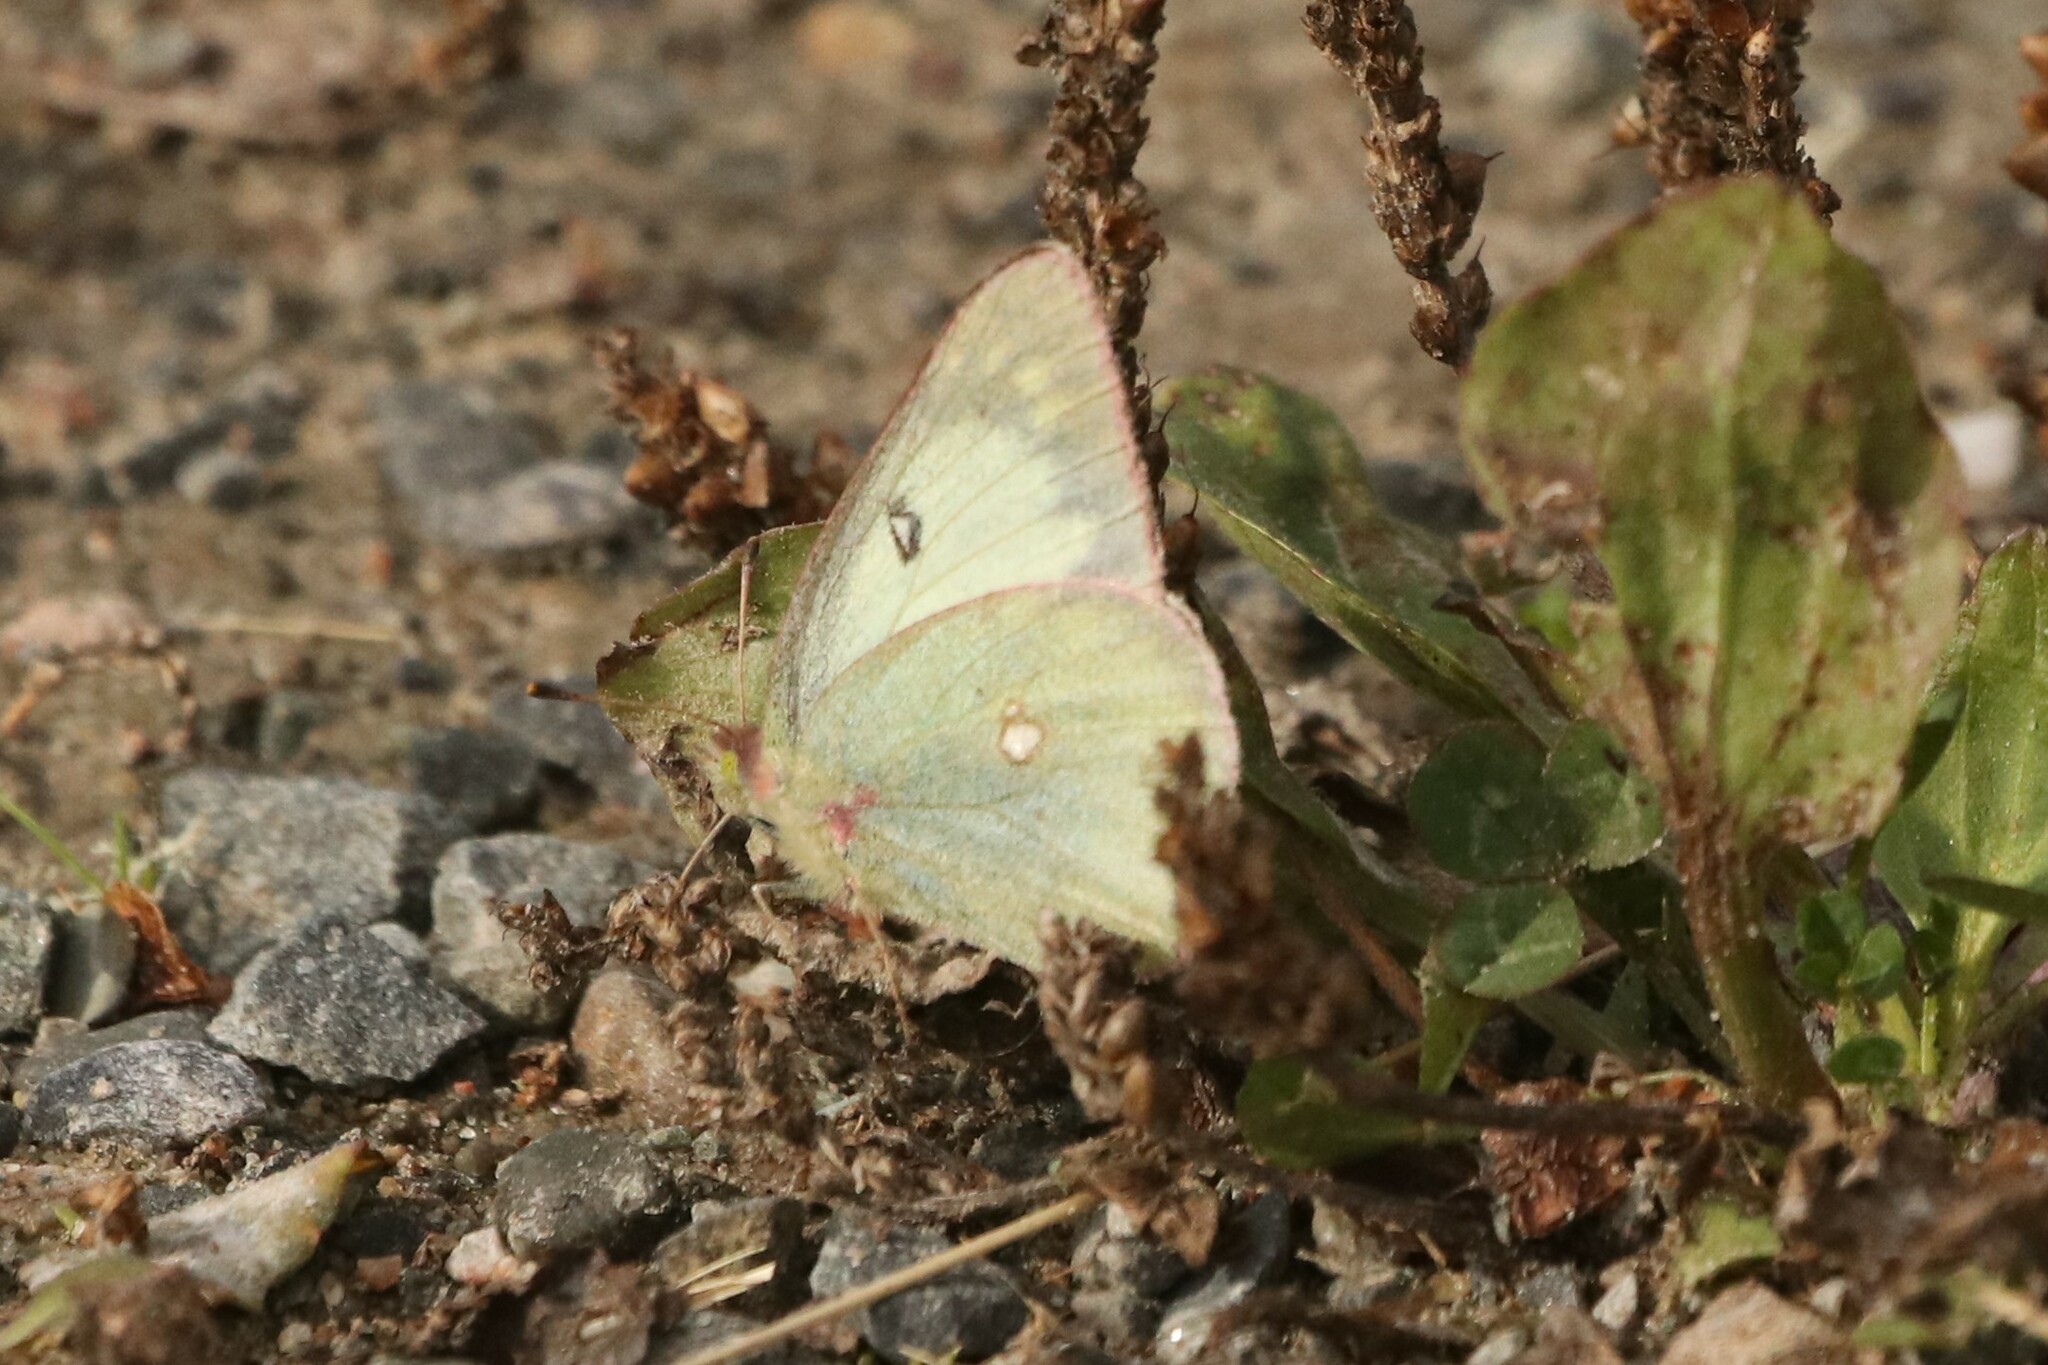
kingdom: Animalia
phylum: Arthropoda
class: Insecta
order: Lepidoptera
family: Pieridae
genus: Colias
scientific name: Colias philodice
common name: Clouded sulphur
